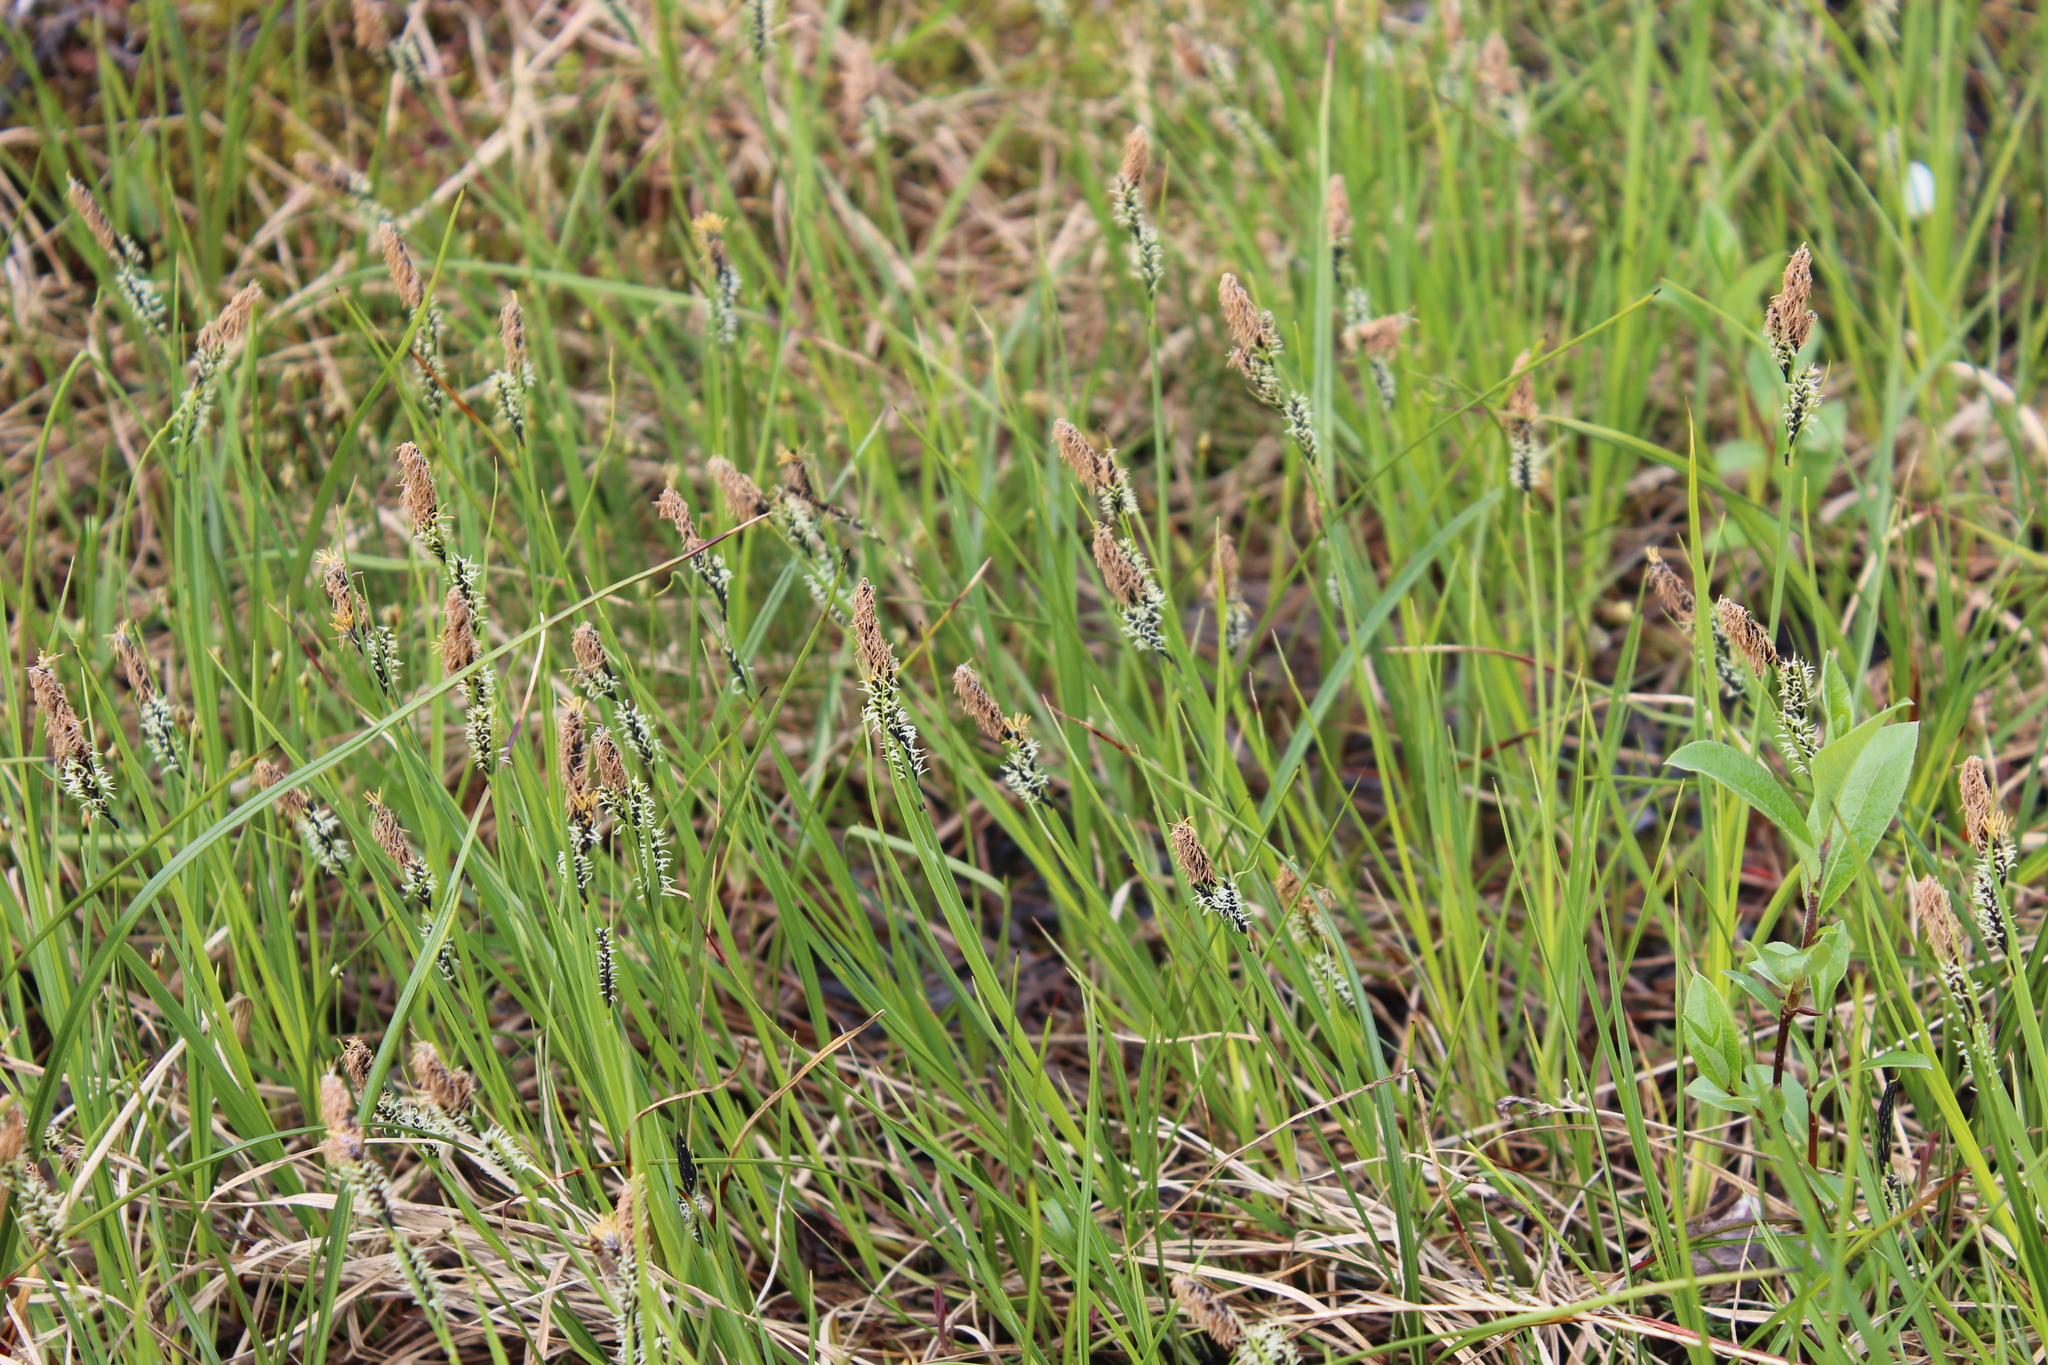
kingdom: Plantae
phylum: Tracheophyta
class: Liliopsida
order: Poales
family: Cyperaceae
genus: Carex
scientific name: Carex bigelowii
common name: Stiff sedge
